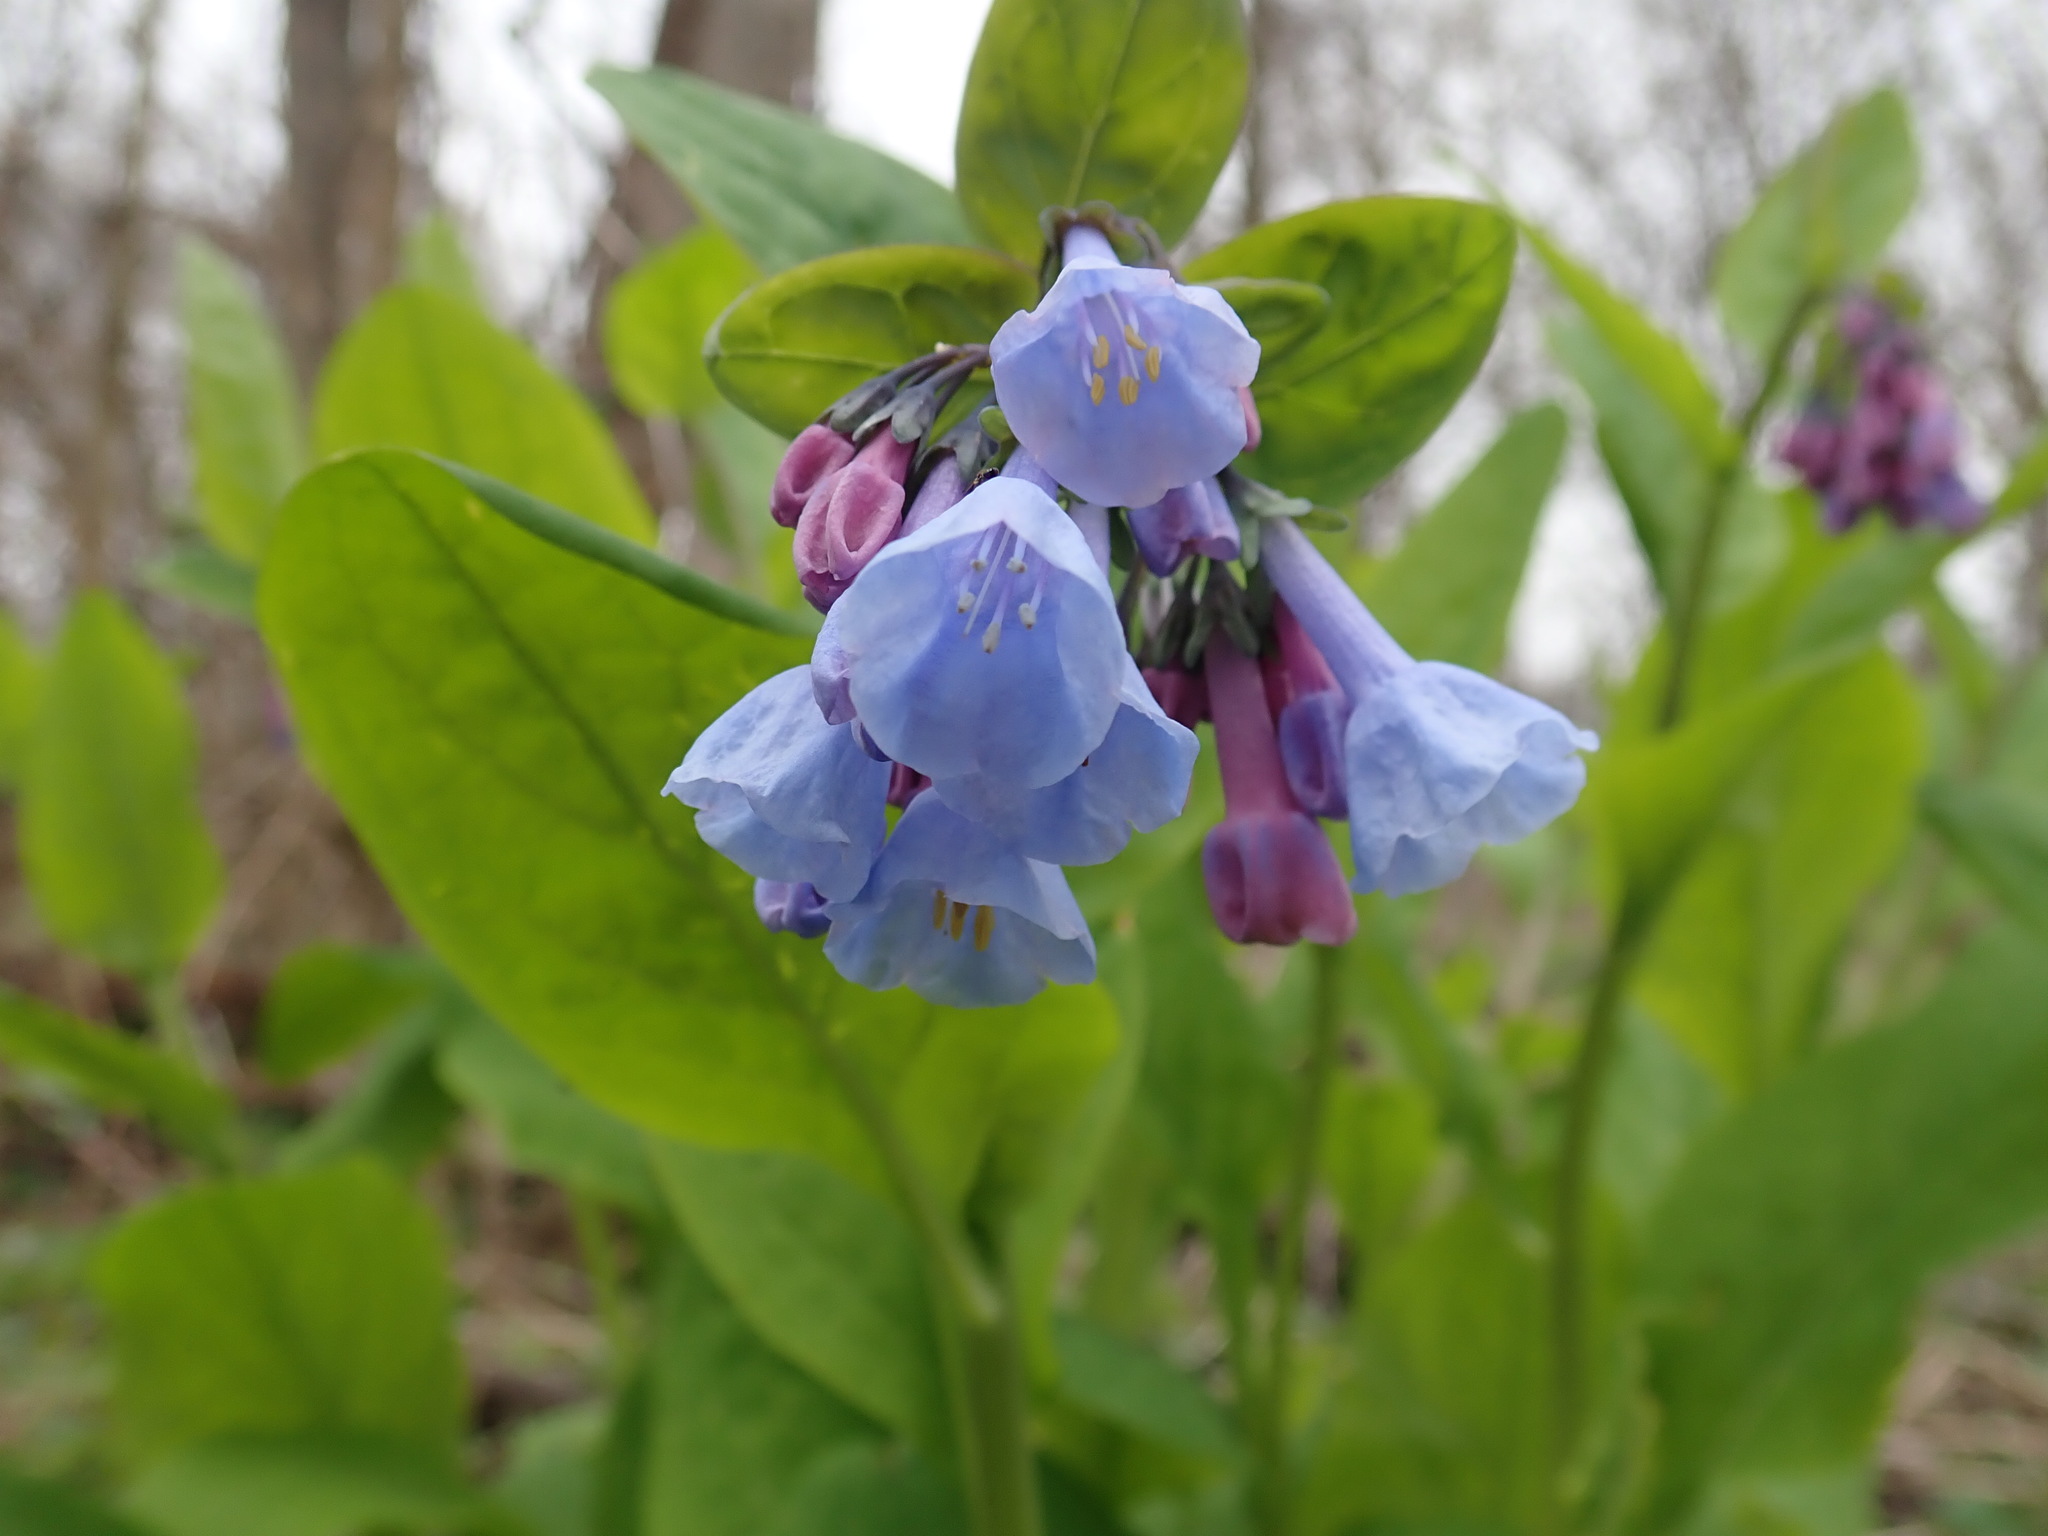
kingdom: Plantae
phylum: Tracheophyta
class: Magnoliopsida
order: Boraginales
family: Boraginaceae
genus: Mertensia
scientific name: Mertensia virginica
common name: Virginia bluebells
